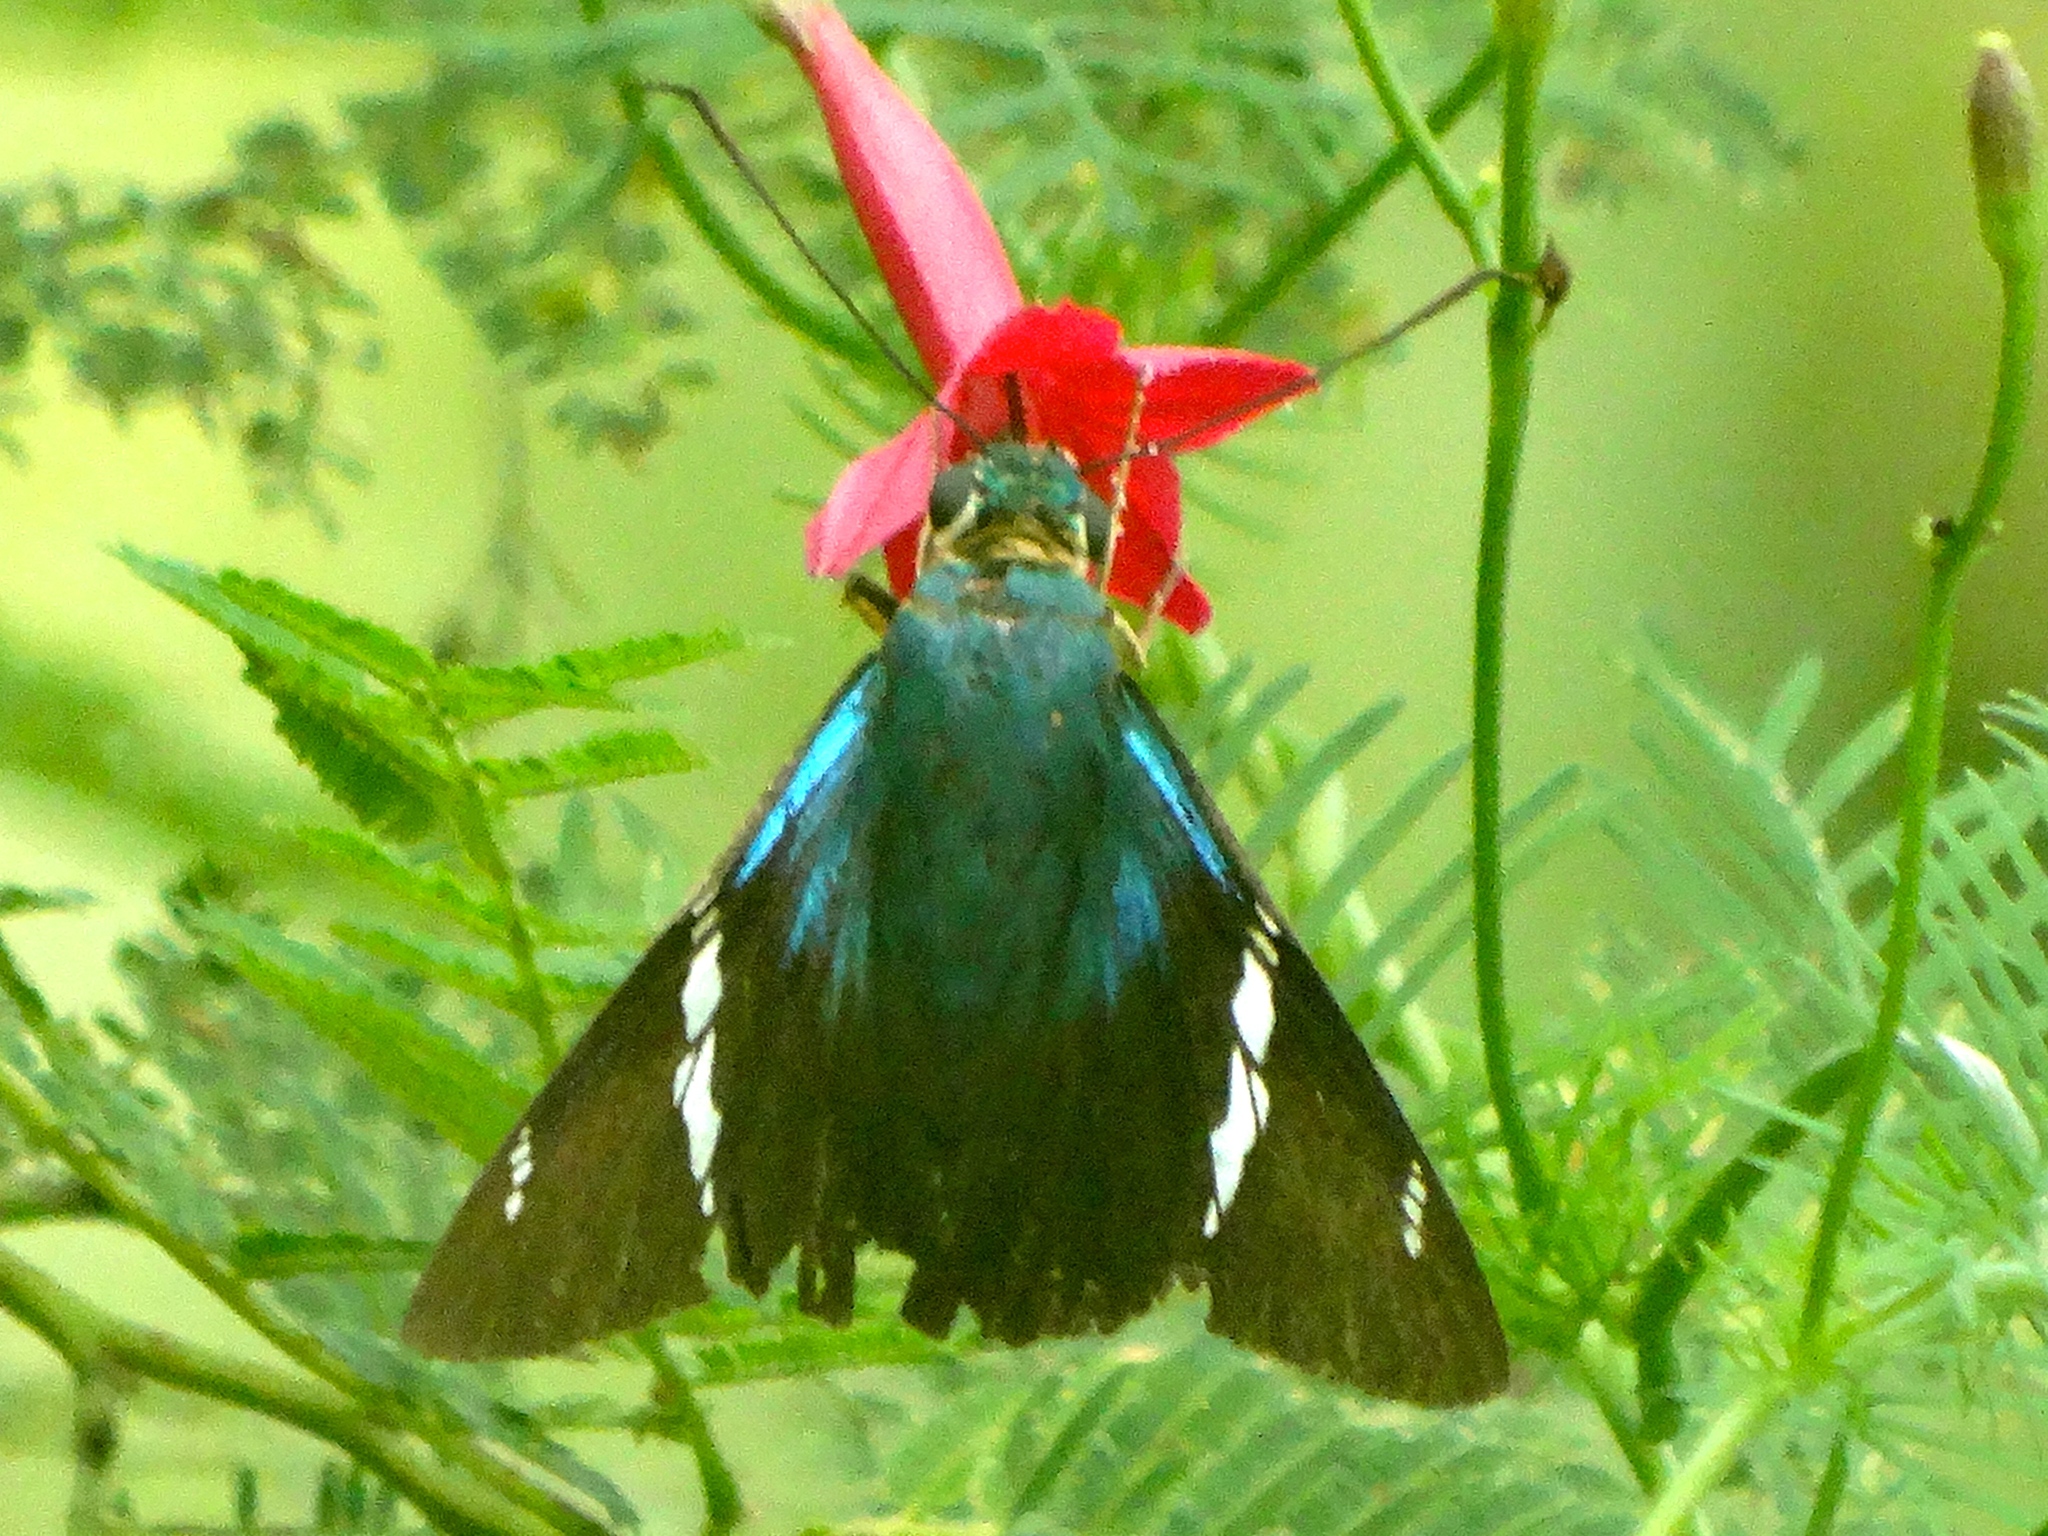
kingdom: Animalia
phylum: Arthropoda
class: Insecta
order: Lepidoptera
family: Hesperiidae
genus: Astraptes
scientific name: Astraptes fulgerator
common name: Two-barred flasher
